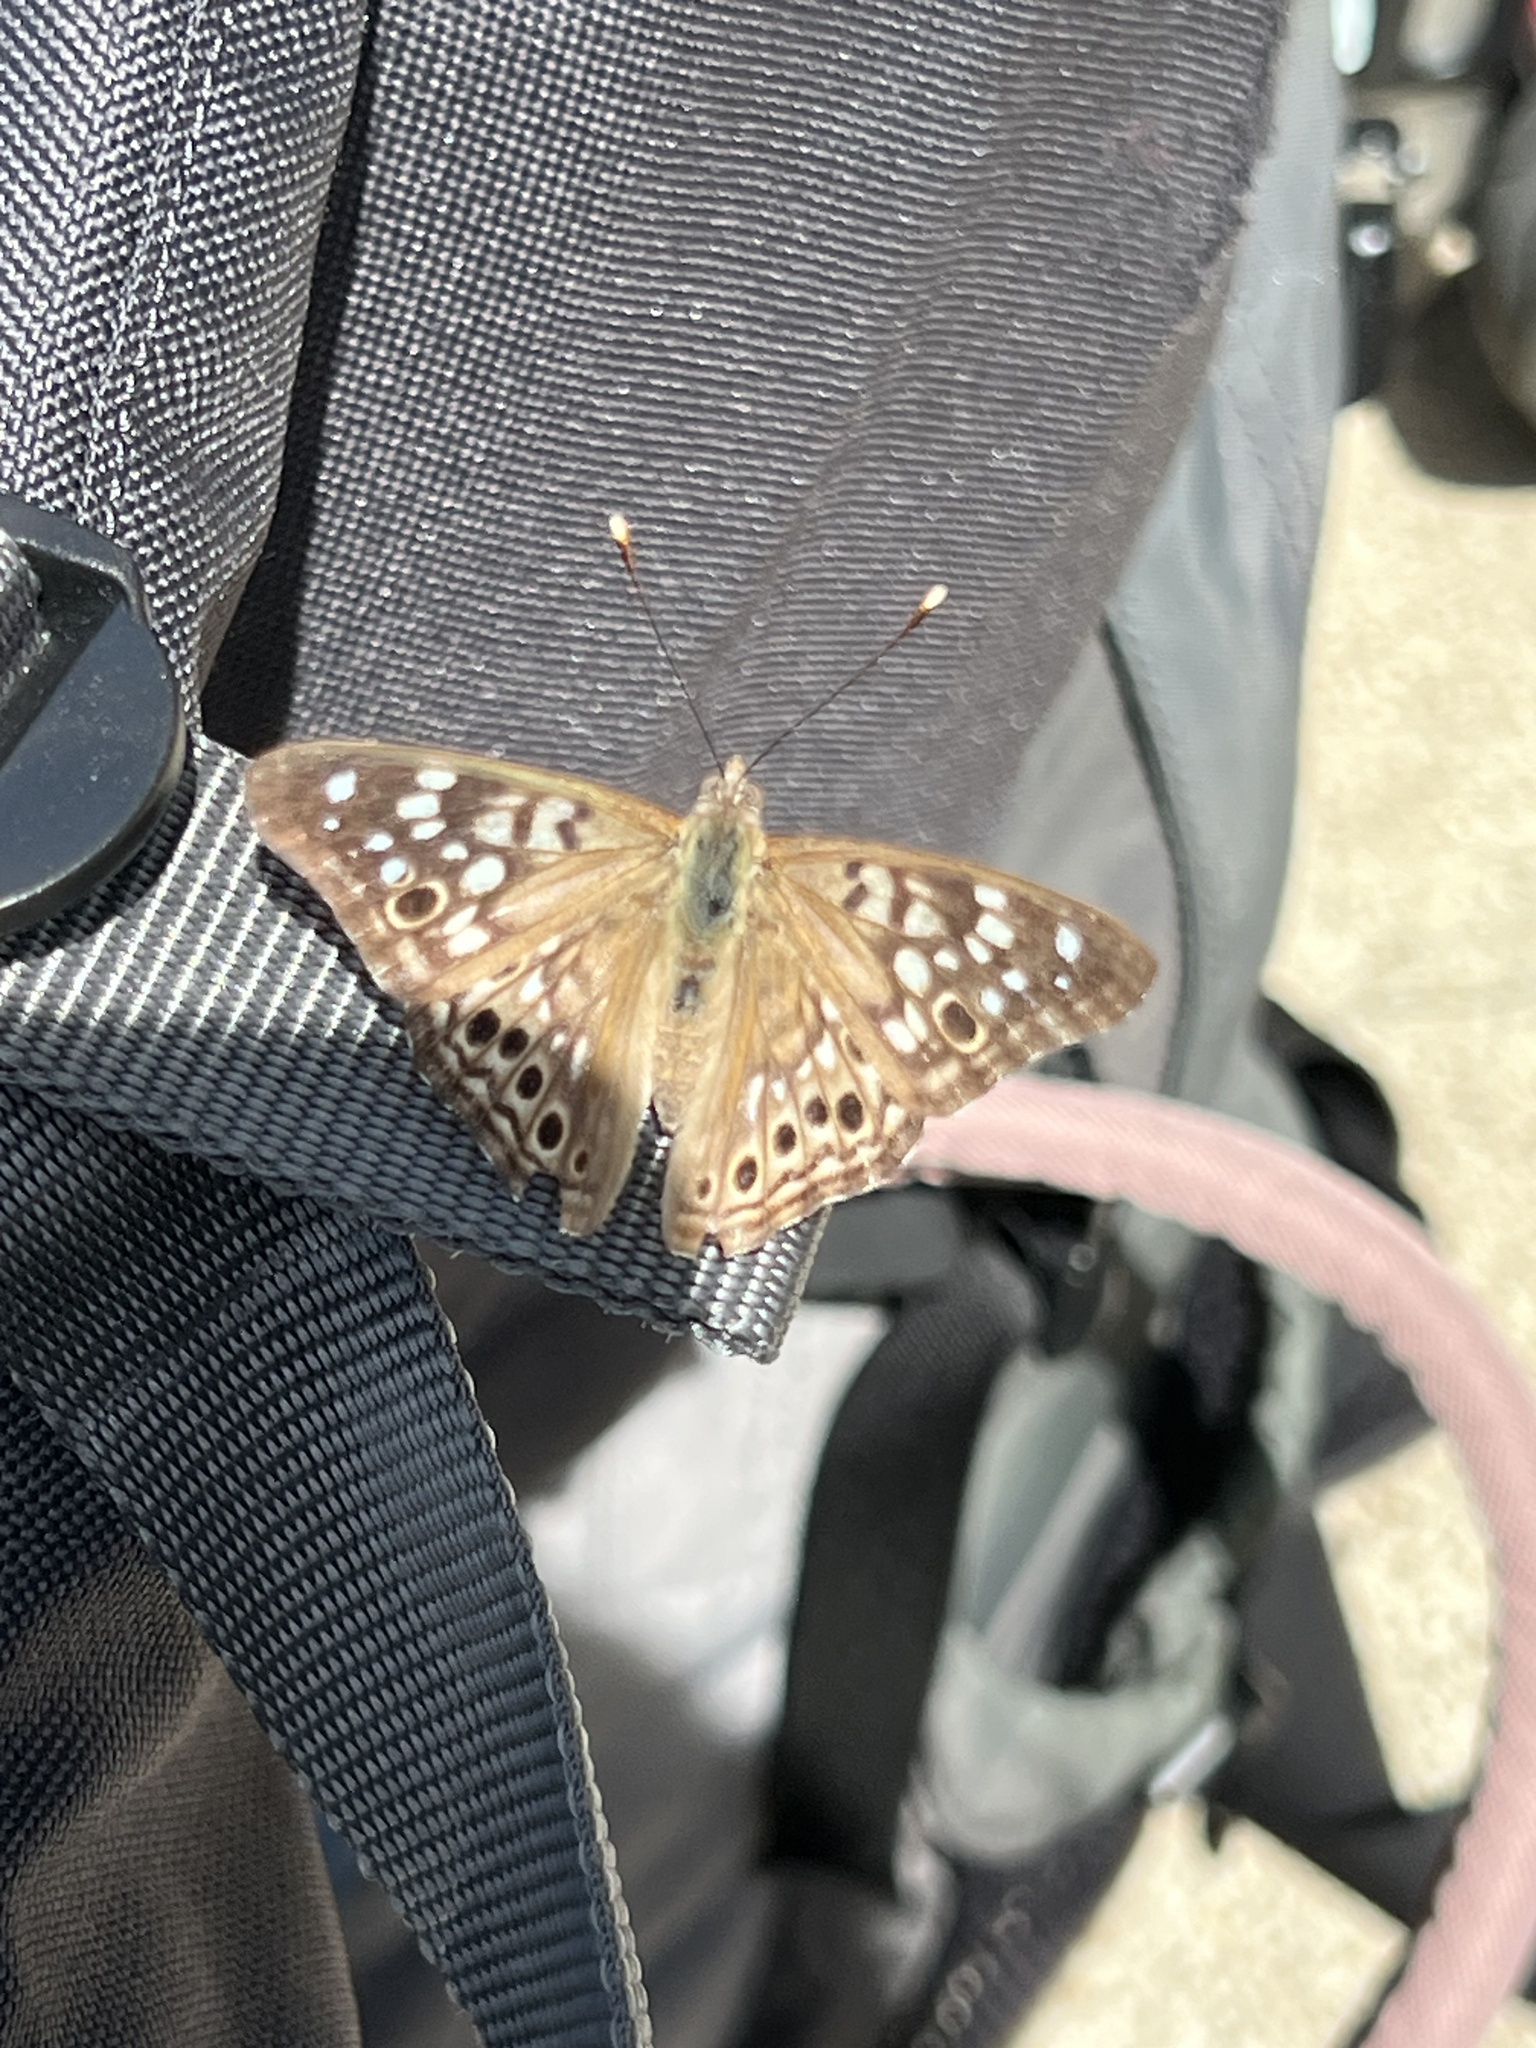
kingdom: Animalia
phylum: Arthropoda
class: Insecta
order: Lepidoptera
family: Nymphalidae
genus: Asterocampa
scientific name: Asterocampa celtis
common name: Hackberry emperor
